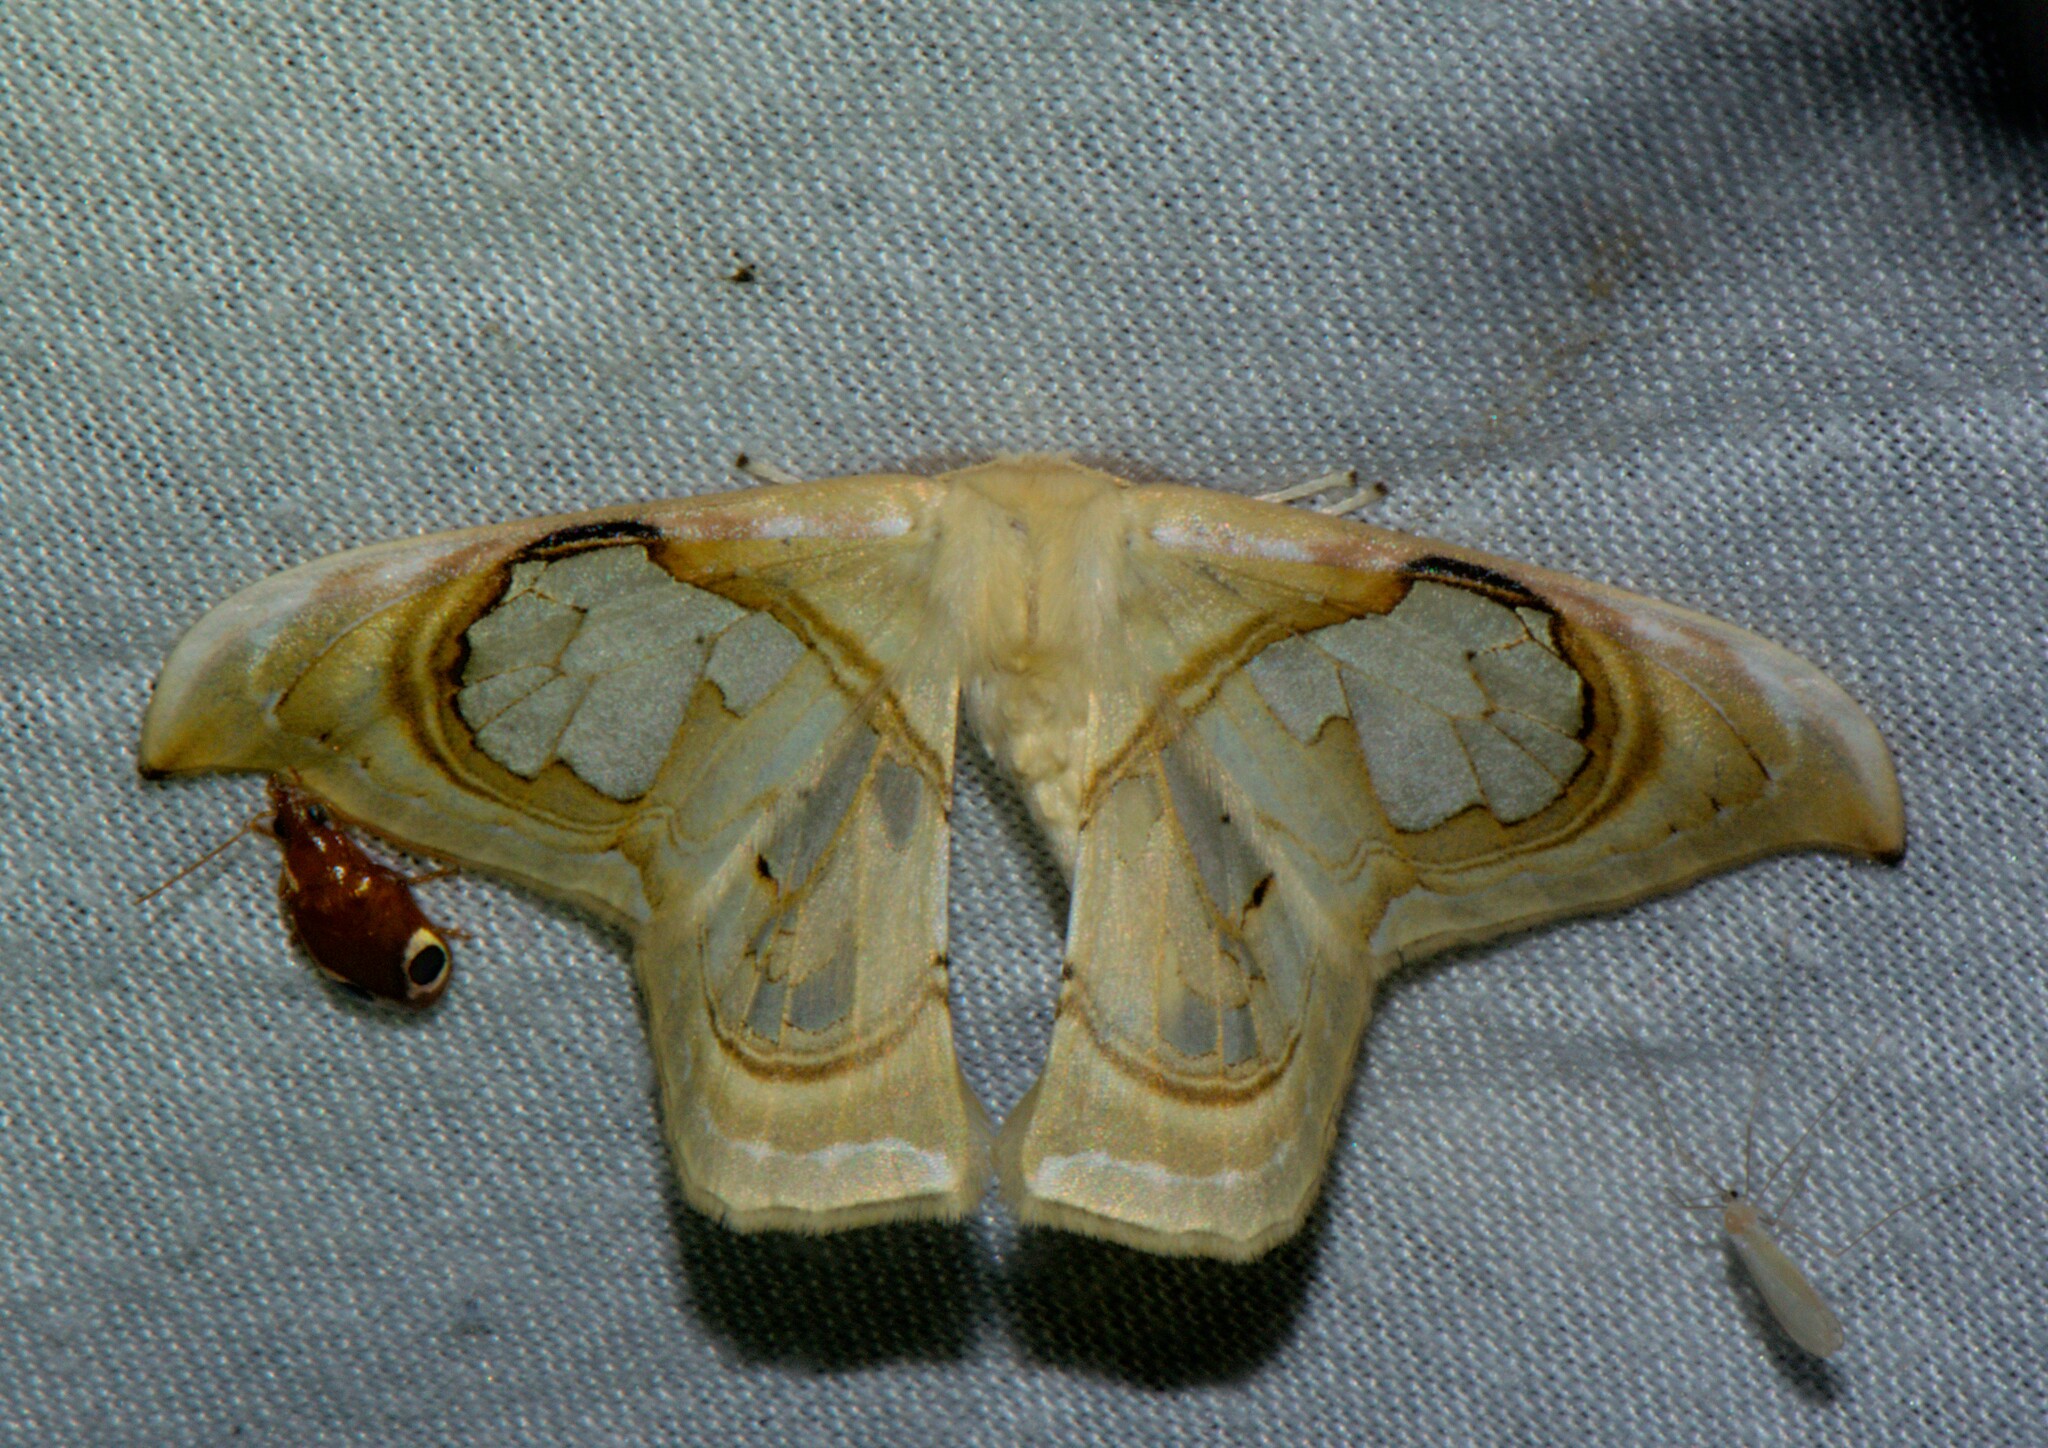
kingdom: Animalia
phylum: Arthropoda
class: Insecta
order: Lepidoptera
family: Drepanidae
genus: Macrauzata
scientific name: Macrauzata fenestraria
